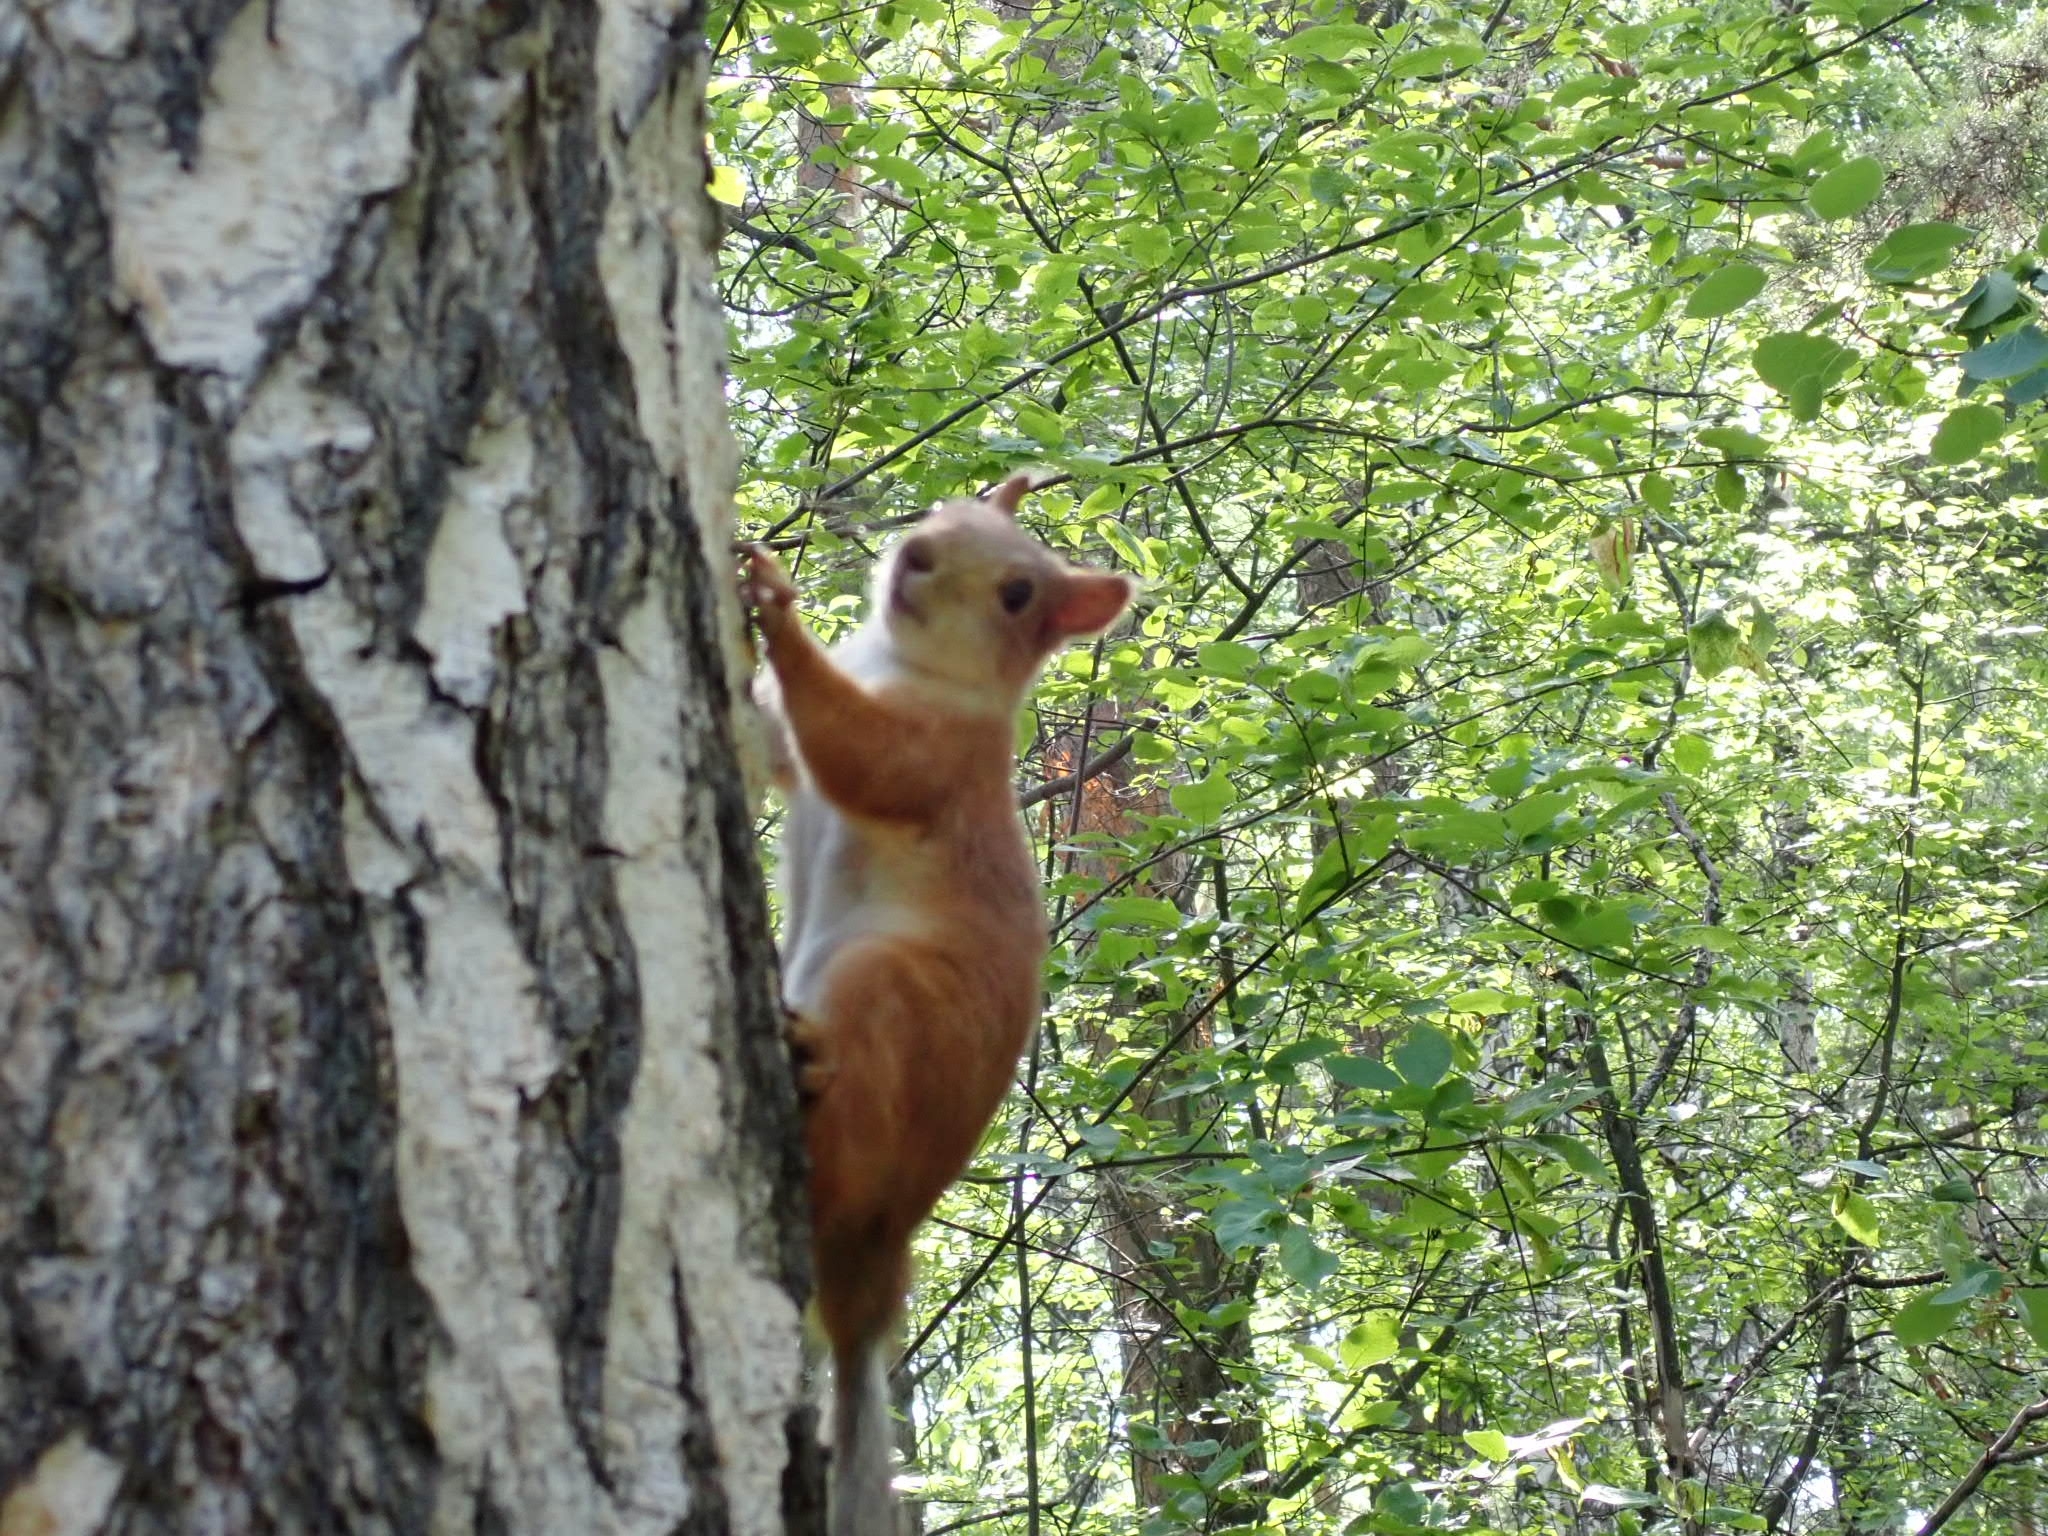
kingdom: Animalia
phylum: Chordata
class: Mammalia
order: Rodentia
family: Sciuridae
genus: Sciurus
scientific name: Sciurus vulgaris
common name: Eurasian red squirrel
